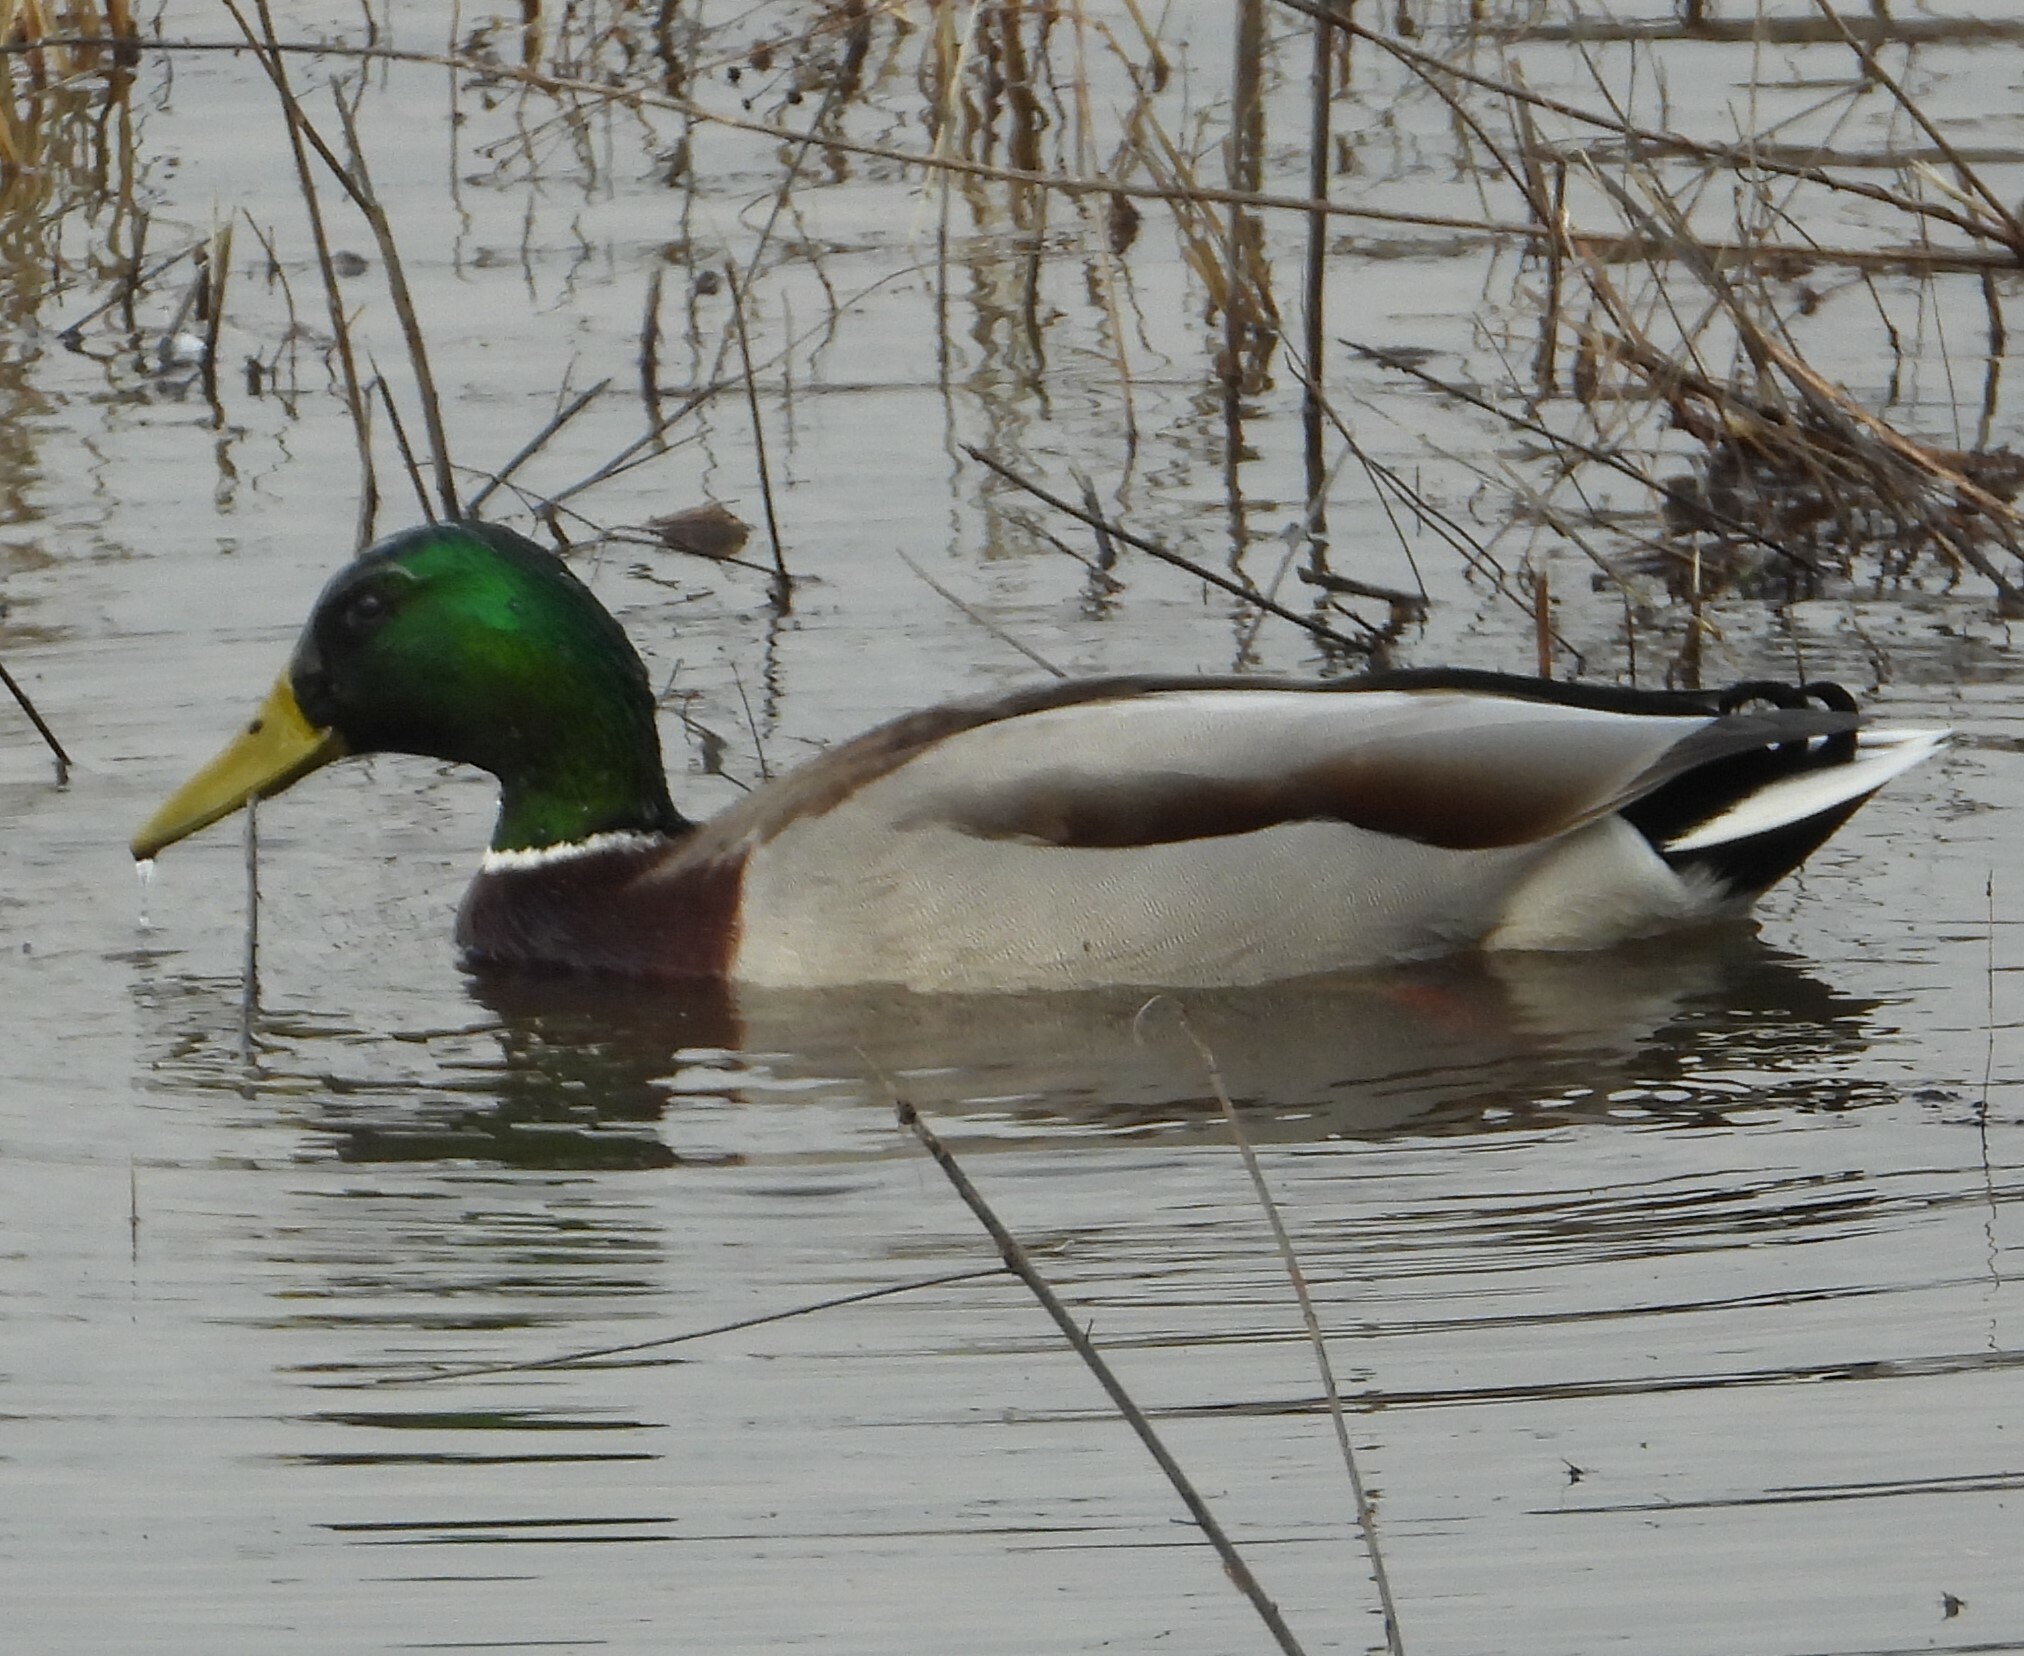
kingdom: Animalia
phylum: Chordata
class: Aves
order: Anseriformes
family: Anatidae
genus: Anas
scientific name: Anas platyrhynchos
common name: Mallard
